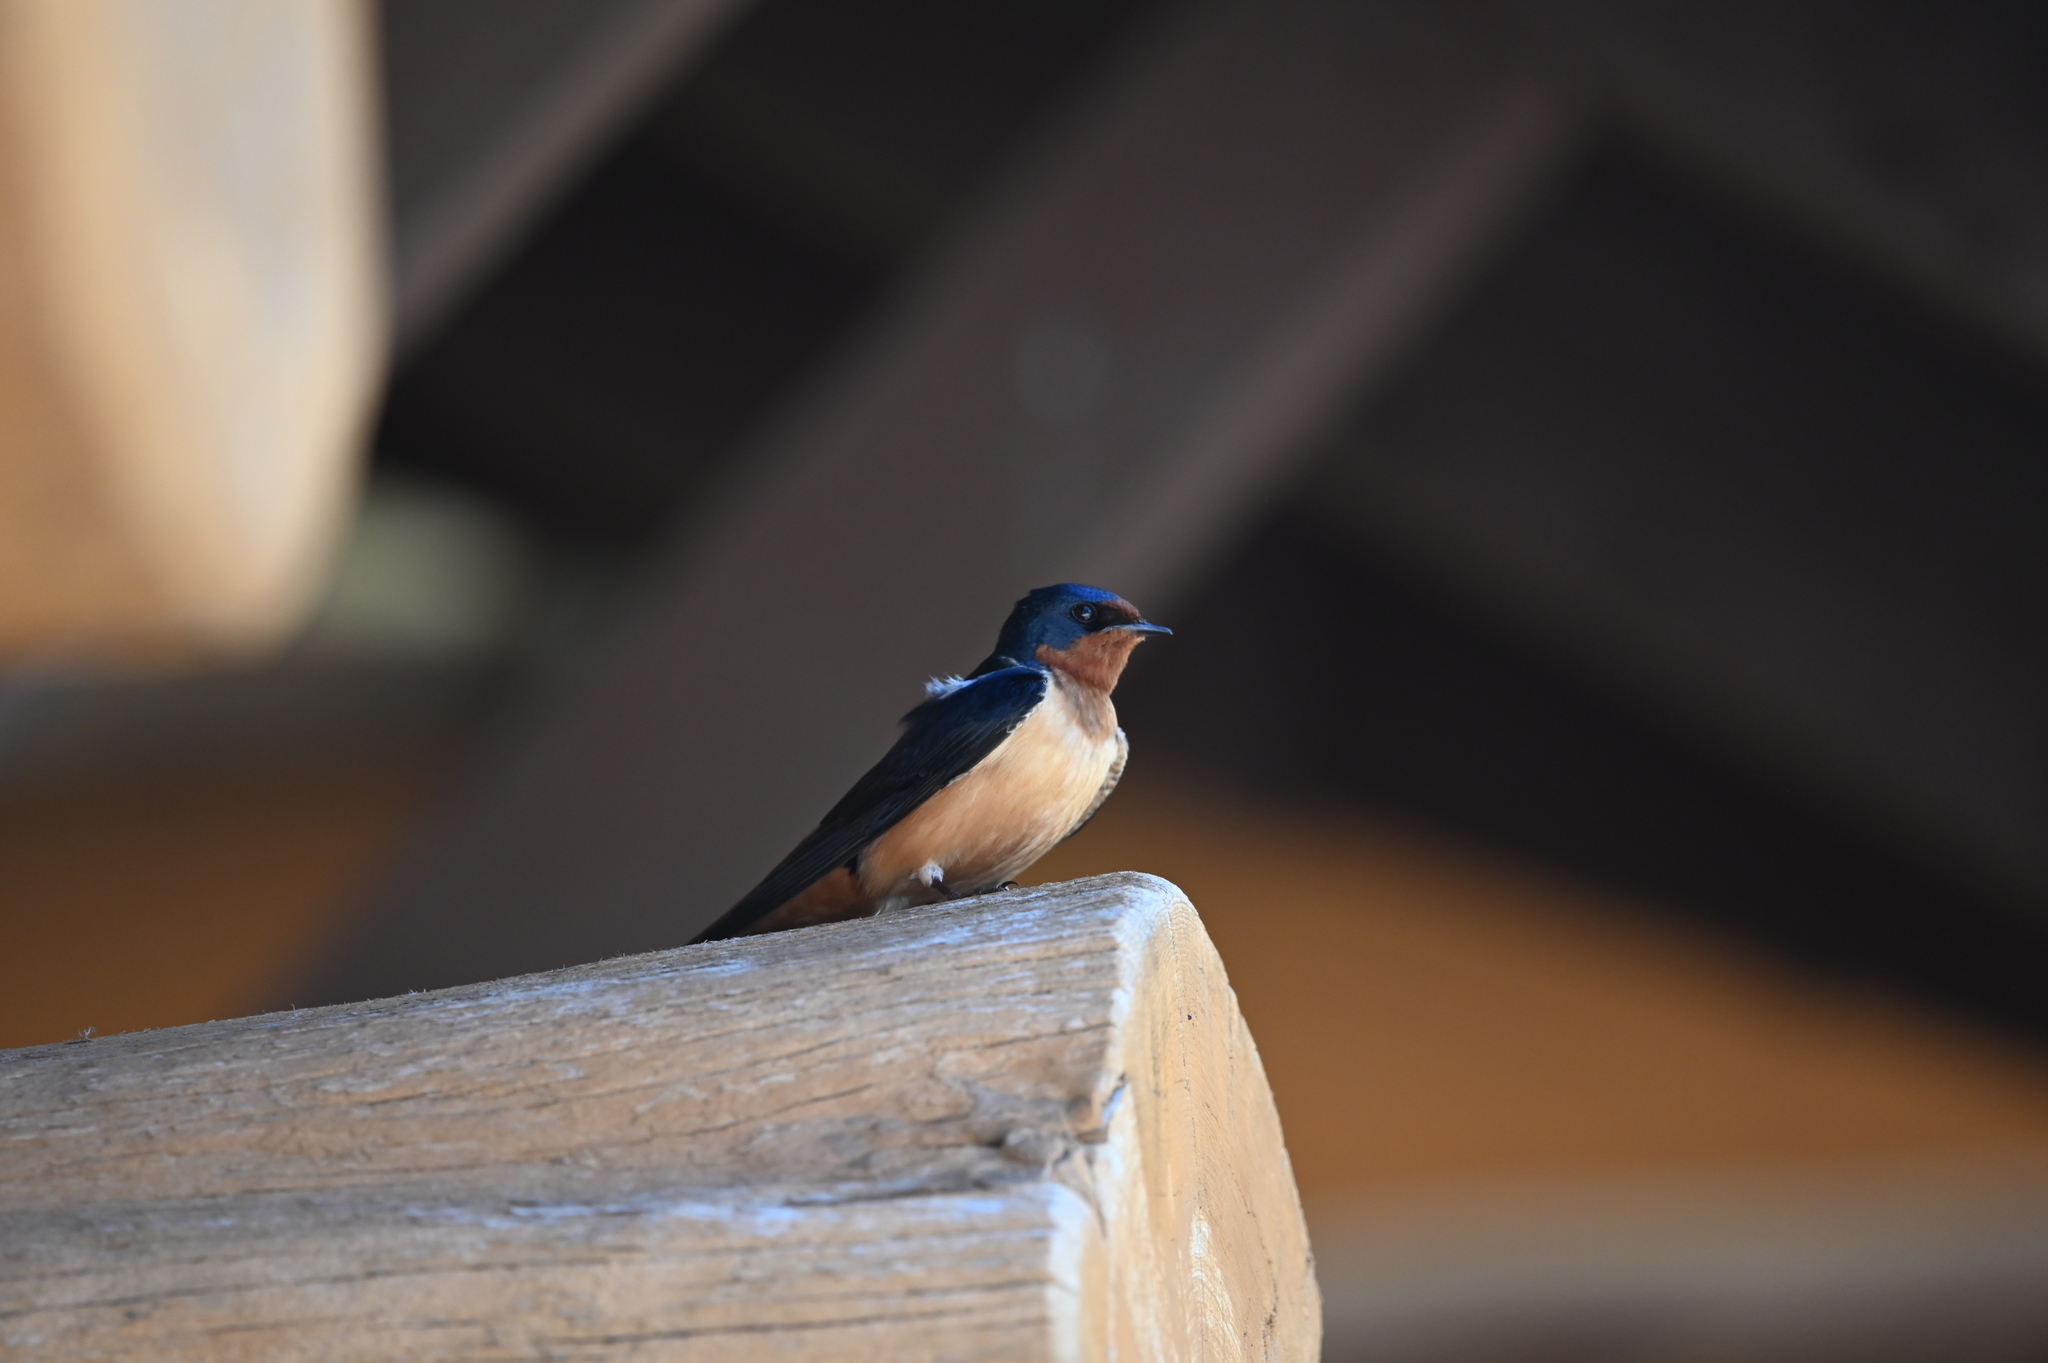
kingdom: Animalia
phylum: Chordata
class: Aves
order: Passeriformes
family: Hirundinidae
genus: Hirundo
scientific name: Hirundo rustica
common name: Barn swallow
